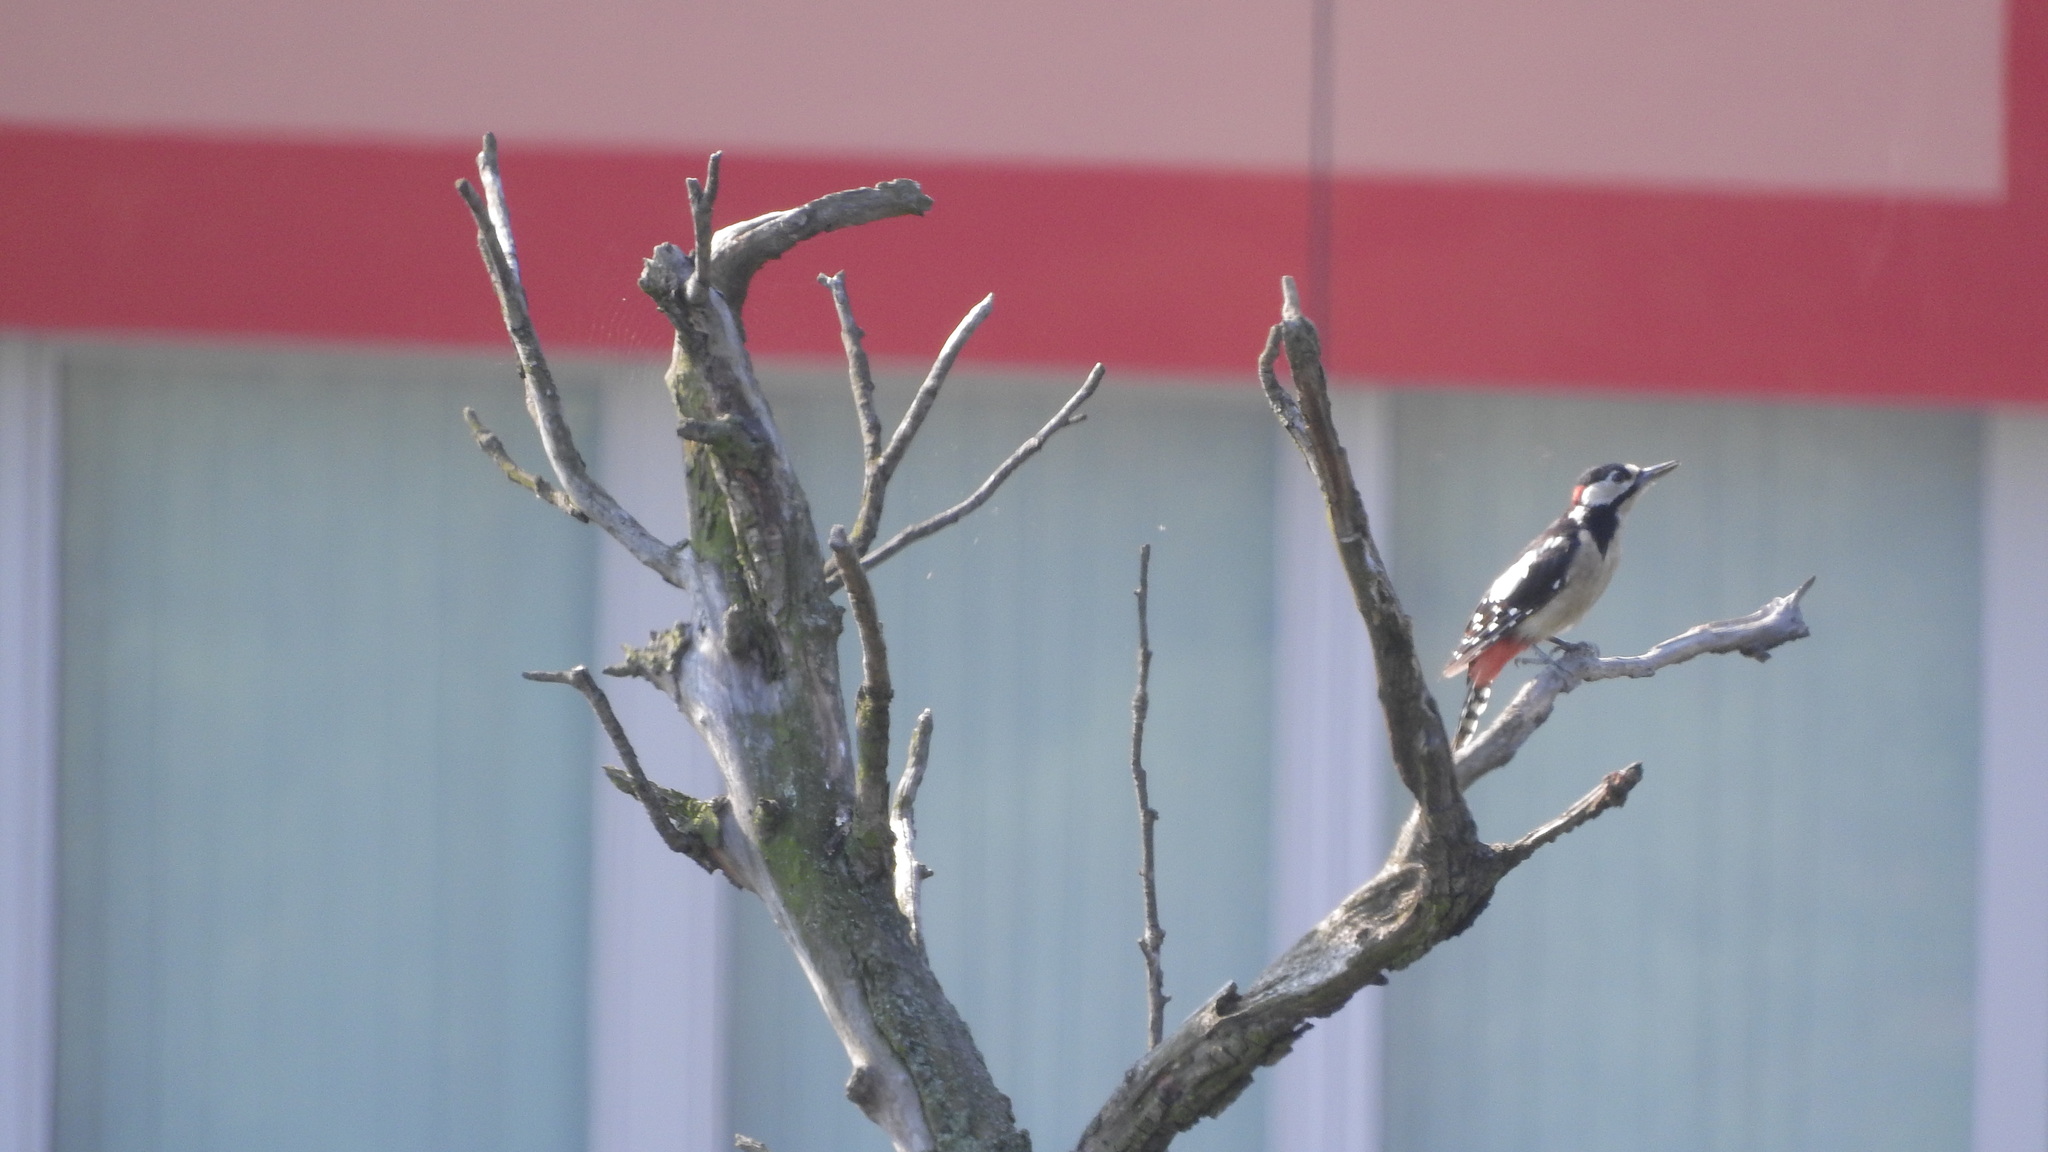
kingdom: Animalia
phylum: Chordata
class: Aves
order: Piciformes
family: Picidae
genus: Dendrocopos
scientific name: Dendrocopos major
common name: Great spotted woodpecker
